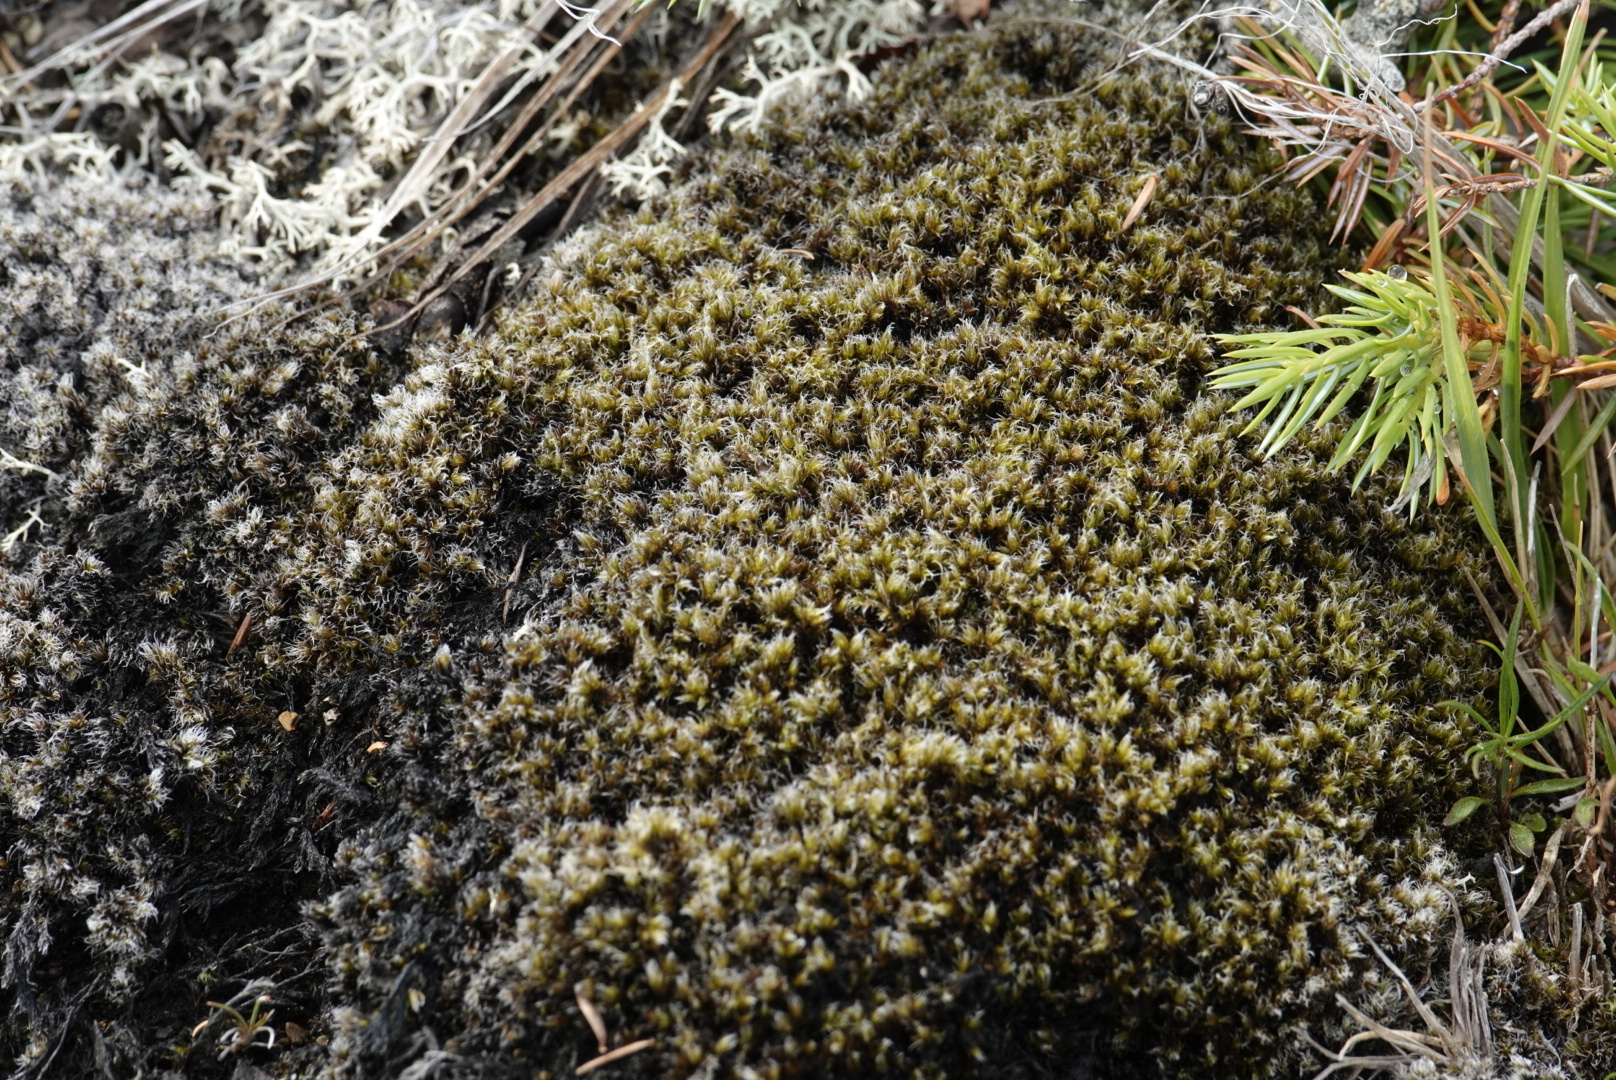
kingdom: Plantae
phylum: Bryophyta
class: Bryopsida
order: Grimmiales
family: Grimmiaceae
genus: Racomitrium
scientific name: Racomitrium lanuginosum
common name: Hoary rock moss
